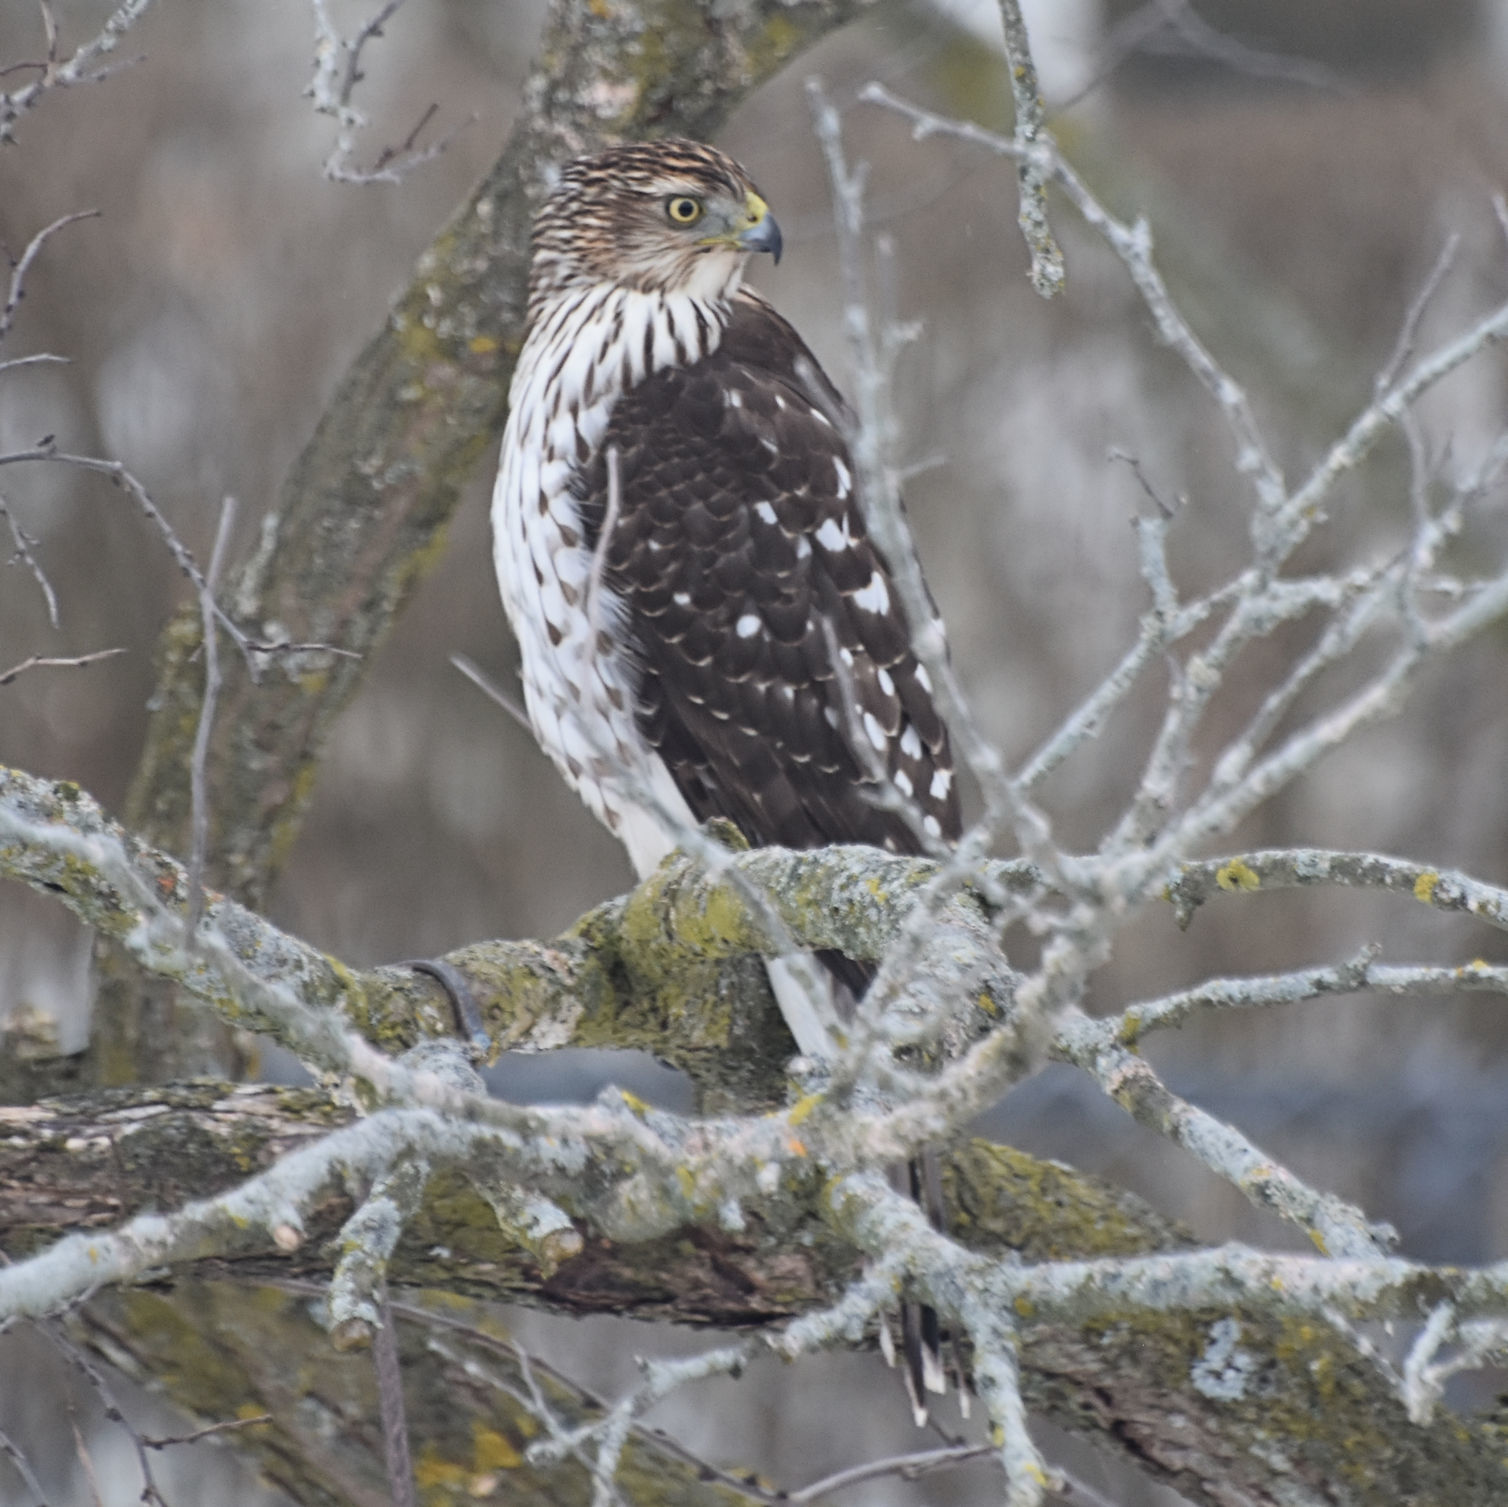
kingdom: Animalia
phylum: Chordata
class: Aves
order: Accipitriformes
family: Accipitridae
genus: Accipiter
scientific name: Accipiter cooperii
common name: Cooper's hawk
